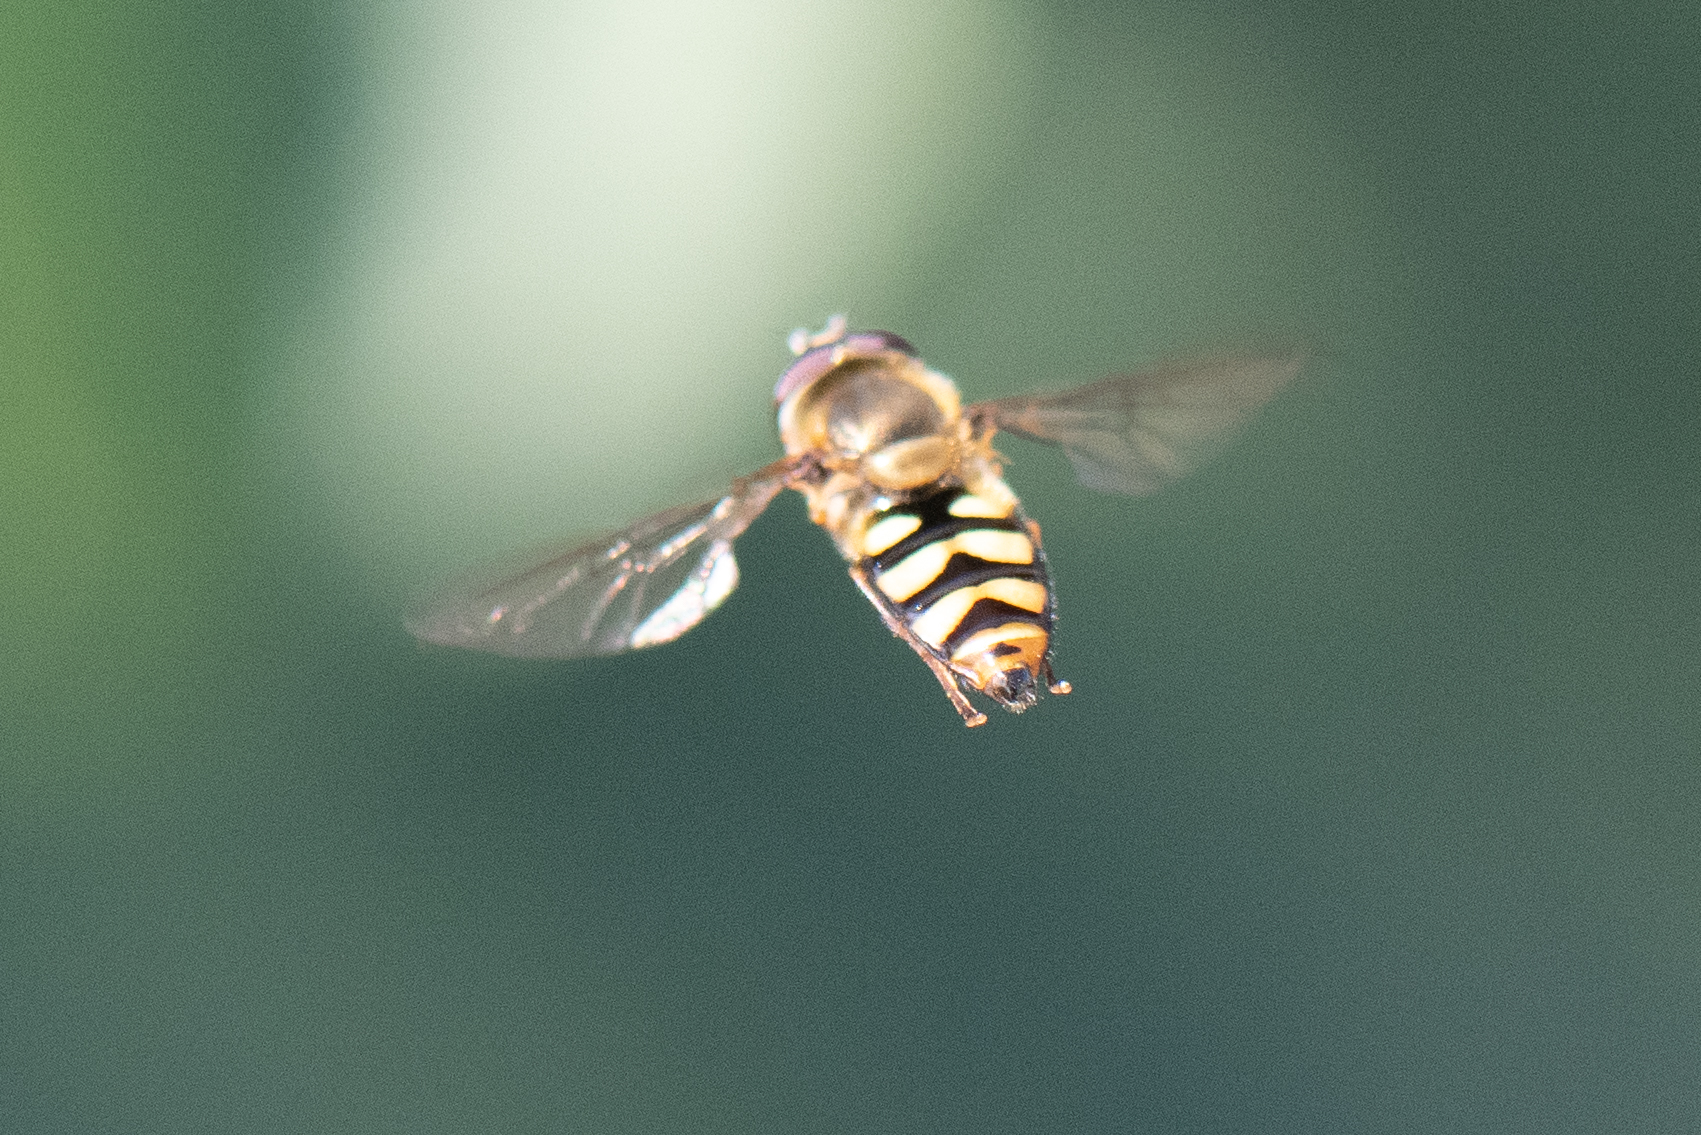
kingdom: Animalia
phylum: Arthropoda
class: Insecta
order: Diptera
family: Syrphidae
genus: Eupeodes
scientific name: Eupeodes fumipennis
